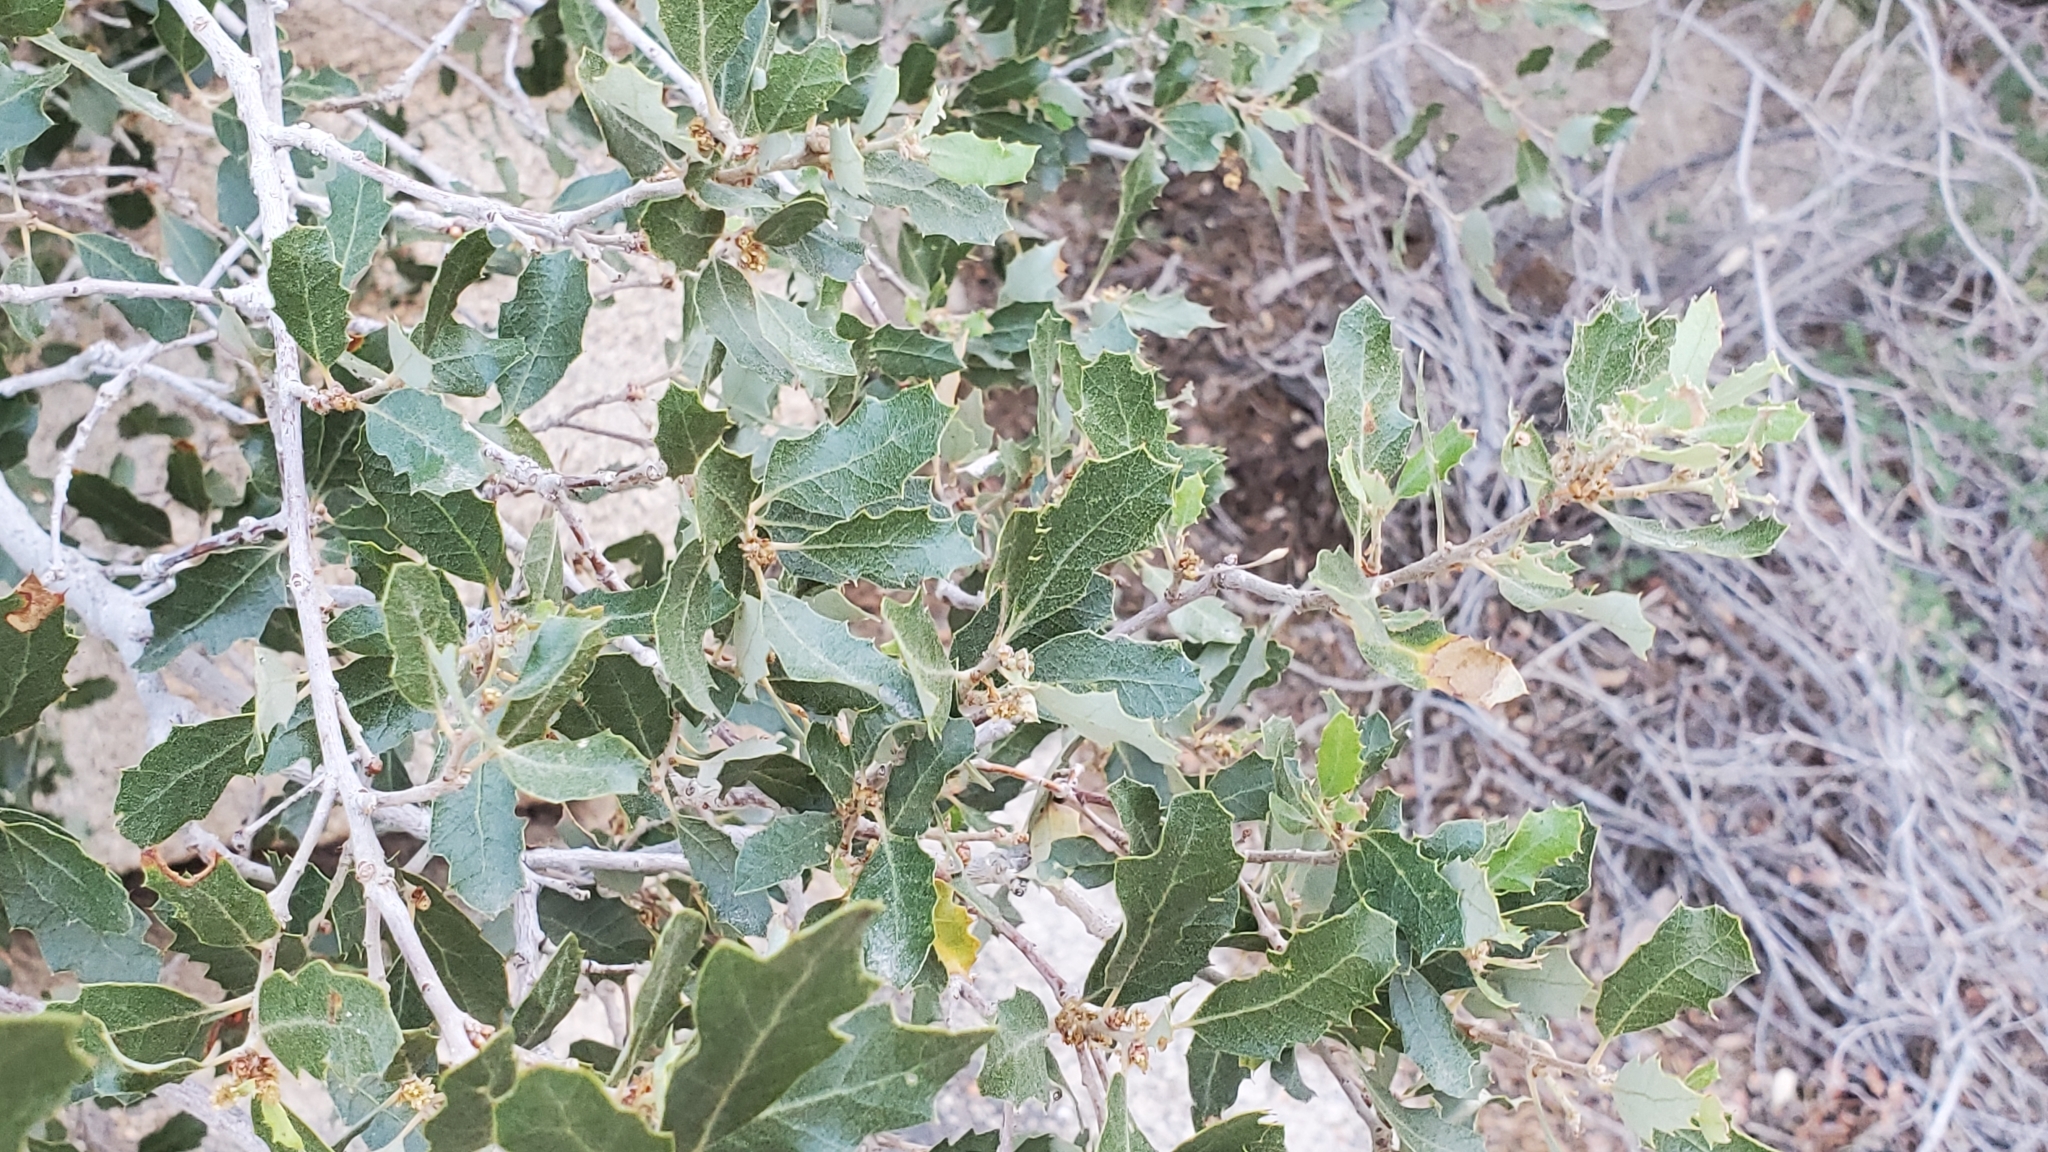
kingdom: Plantae
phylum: Tracheophyta
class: Magnoliopsida
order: Fagales
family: Fagaceae
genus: Quercus
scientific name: Quercus cornelius-mulleri
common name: Muller oak
